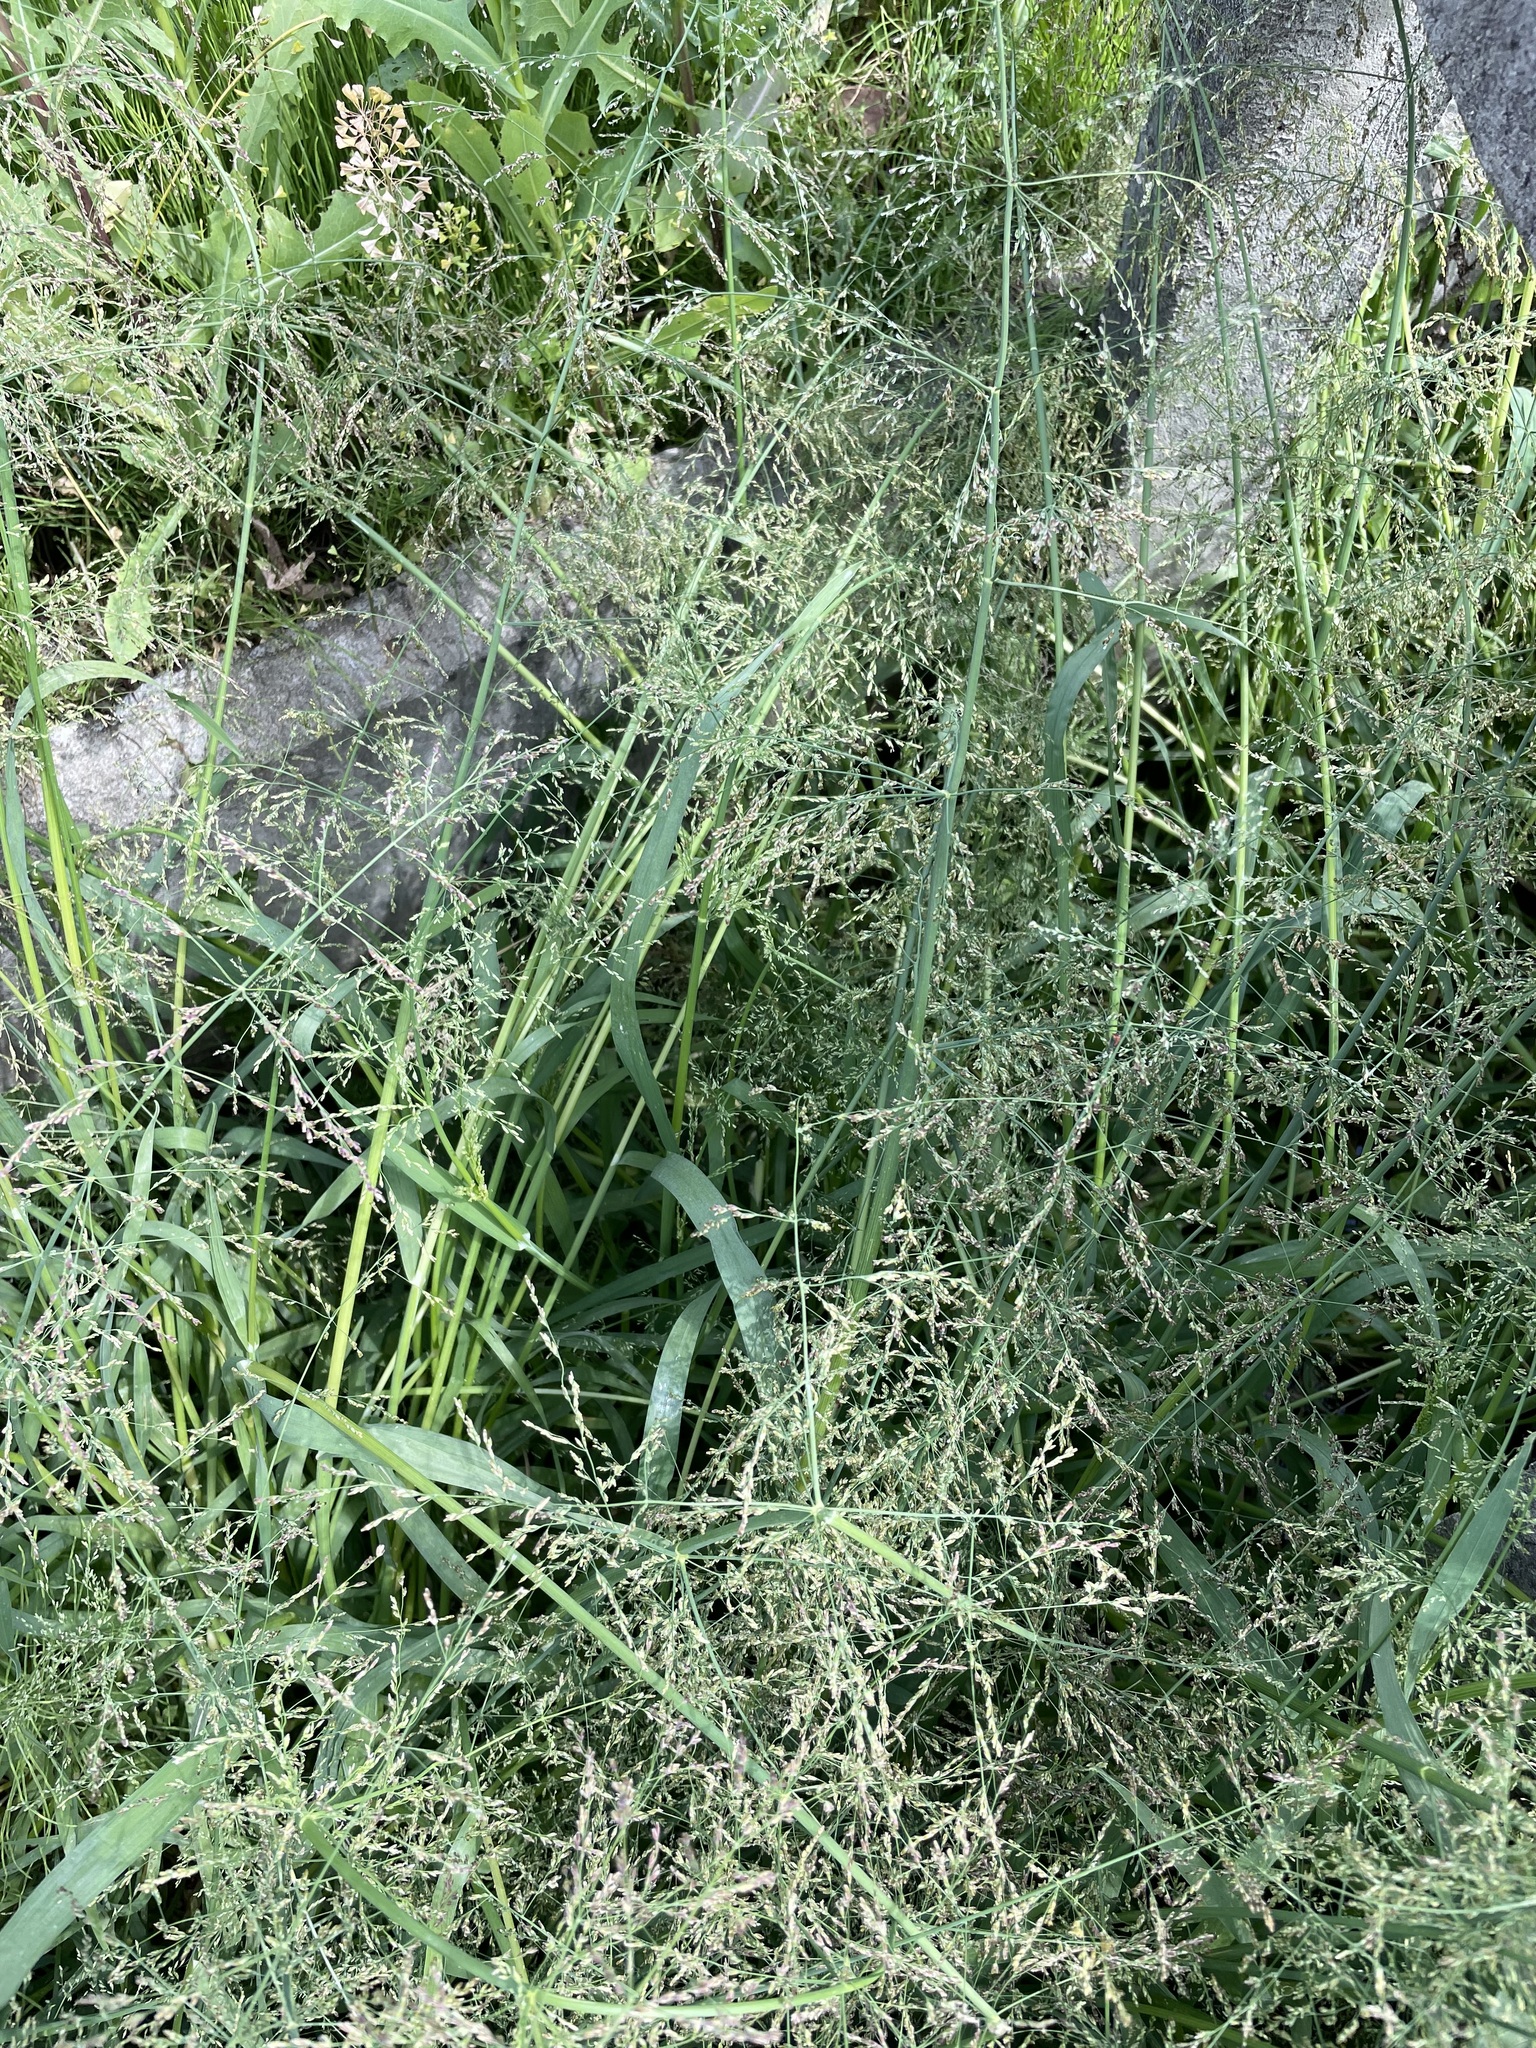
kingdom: Plantae
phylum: Tracheophyta
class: Liliopsida
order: Poales
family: Poaceae
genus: Catabrosa
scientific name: Catabrosa aquatica
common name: Whorl-grass
